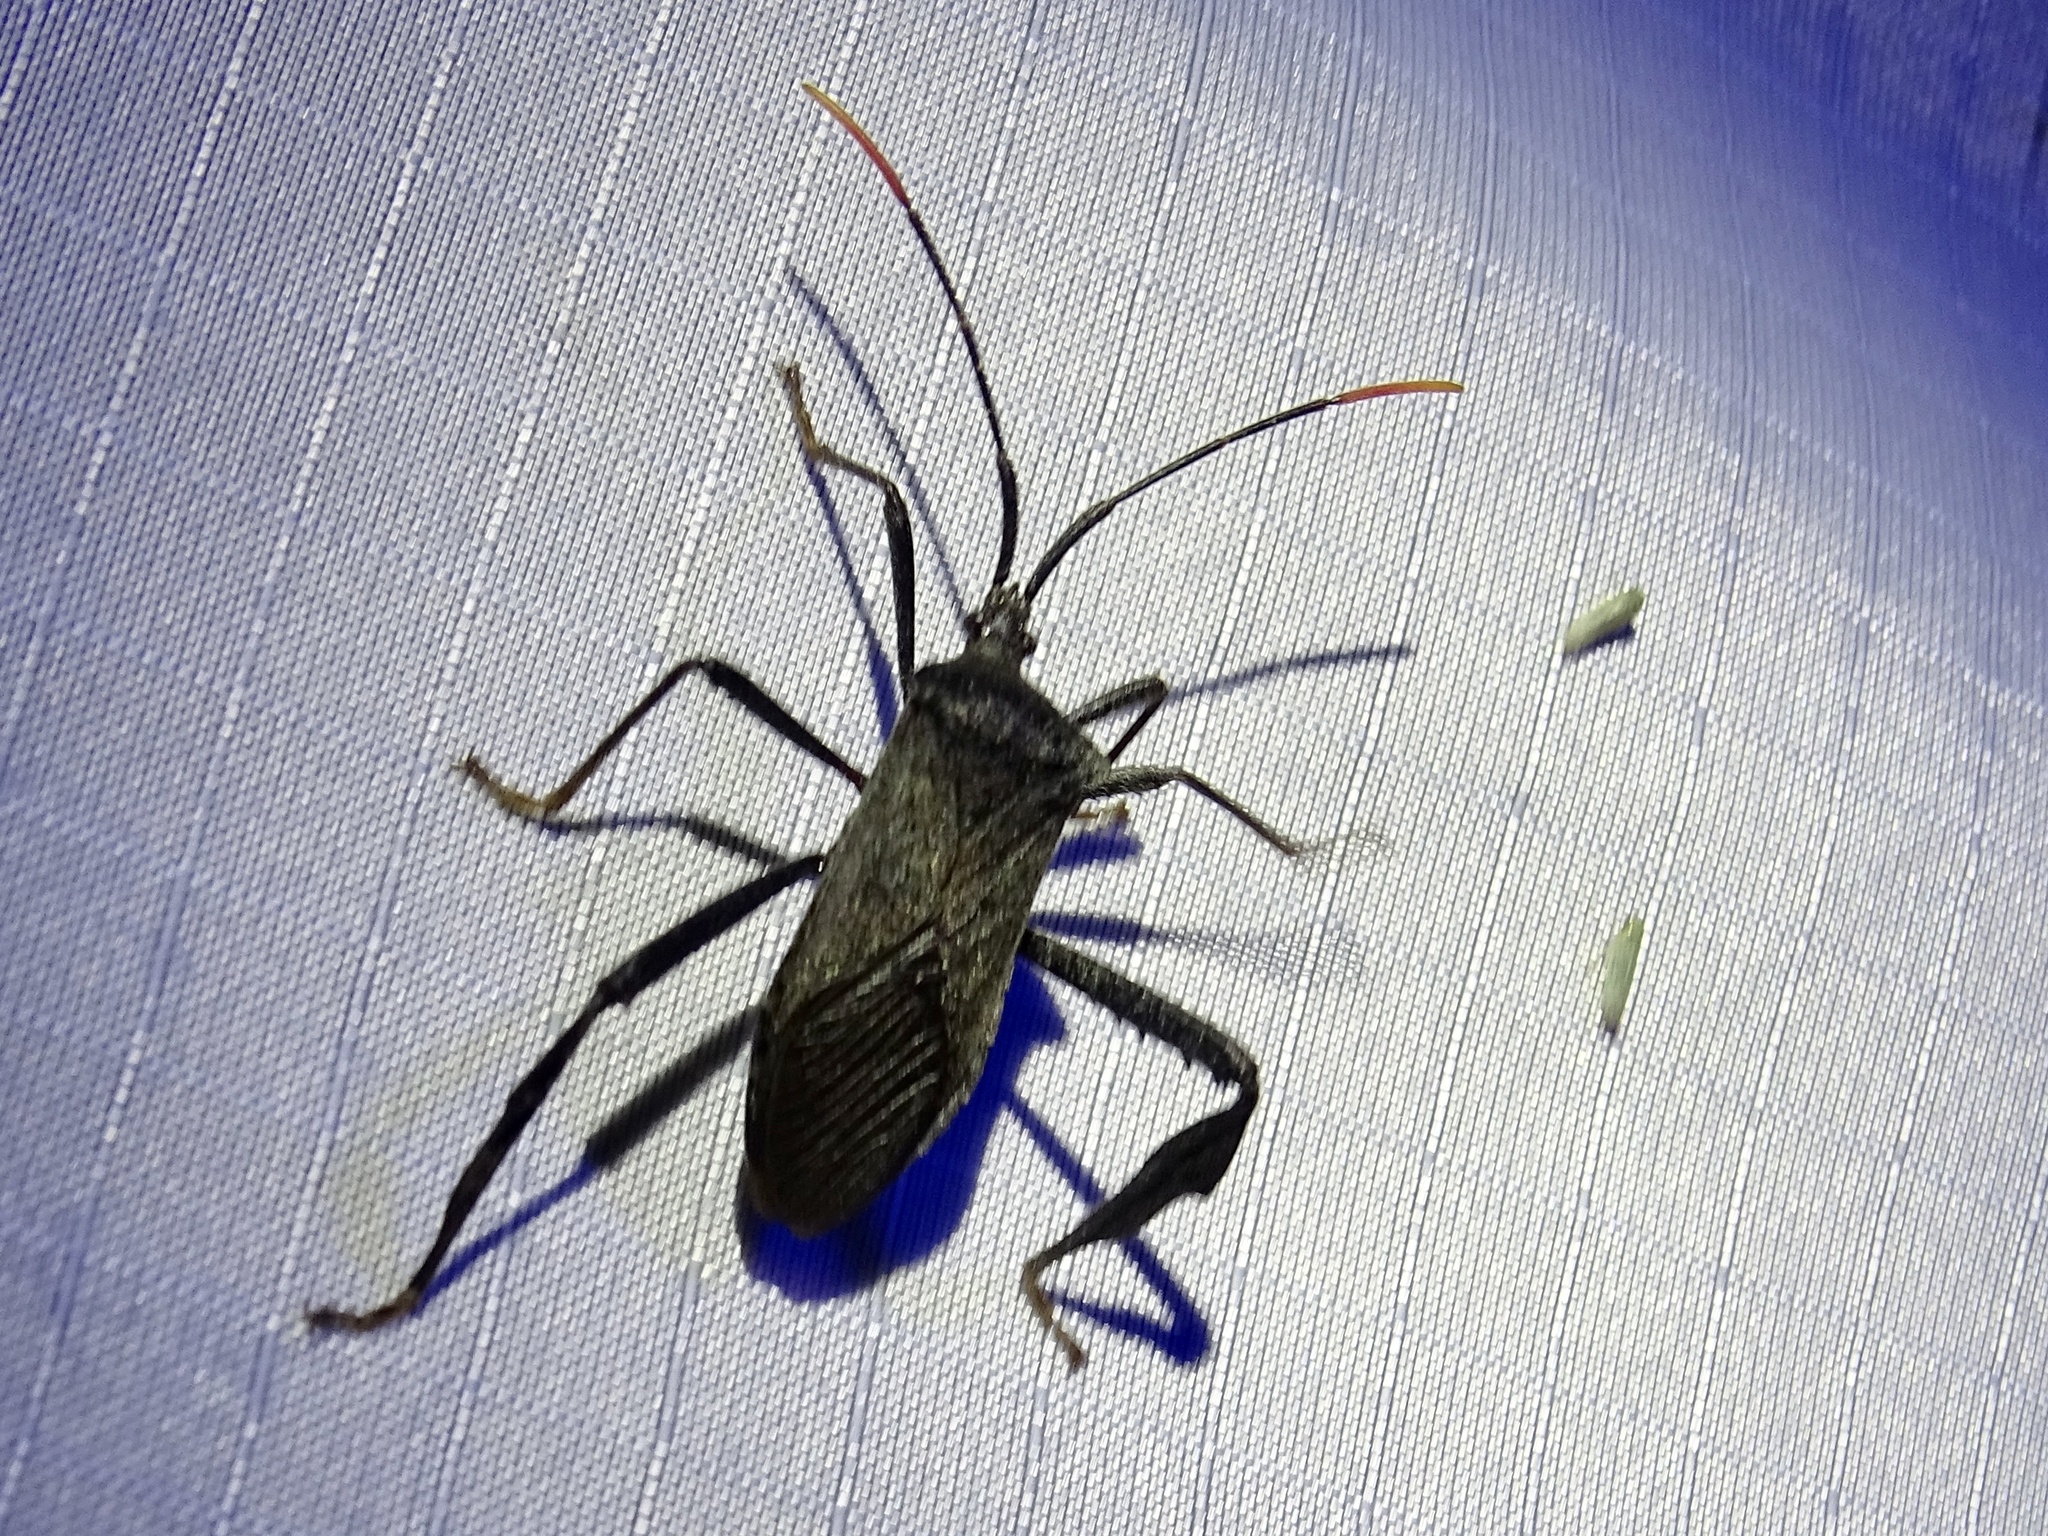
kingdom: Animalia
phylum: Arthropoda
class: Insecta
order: Hemiptera
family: Coreidae
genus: Acanthocephala
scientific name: Acanthocephala terminalis
